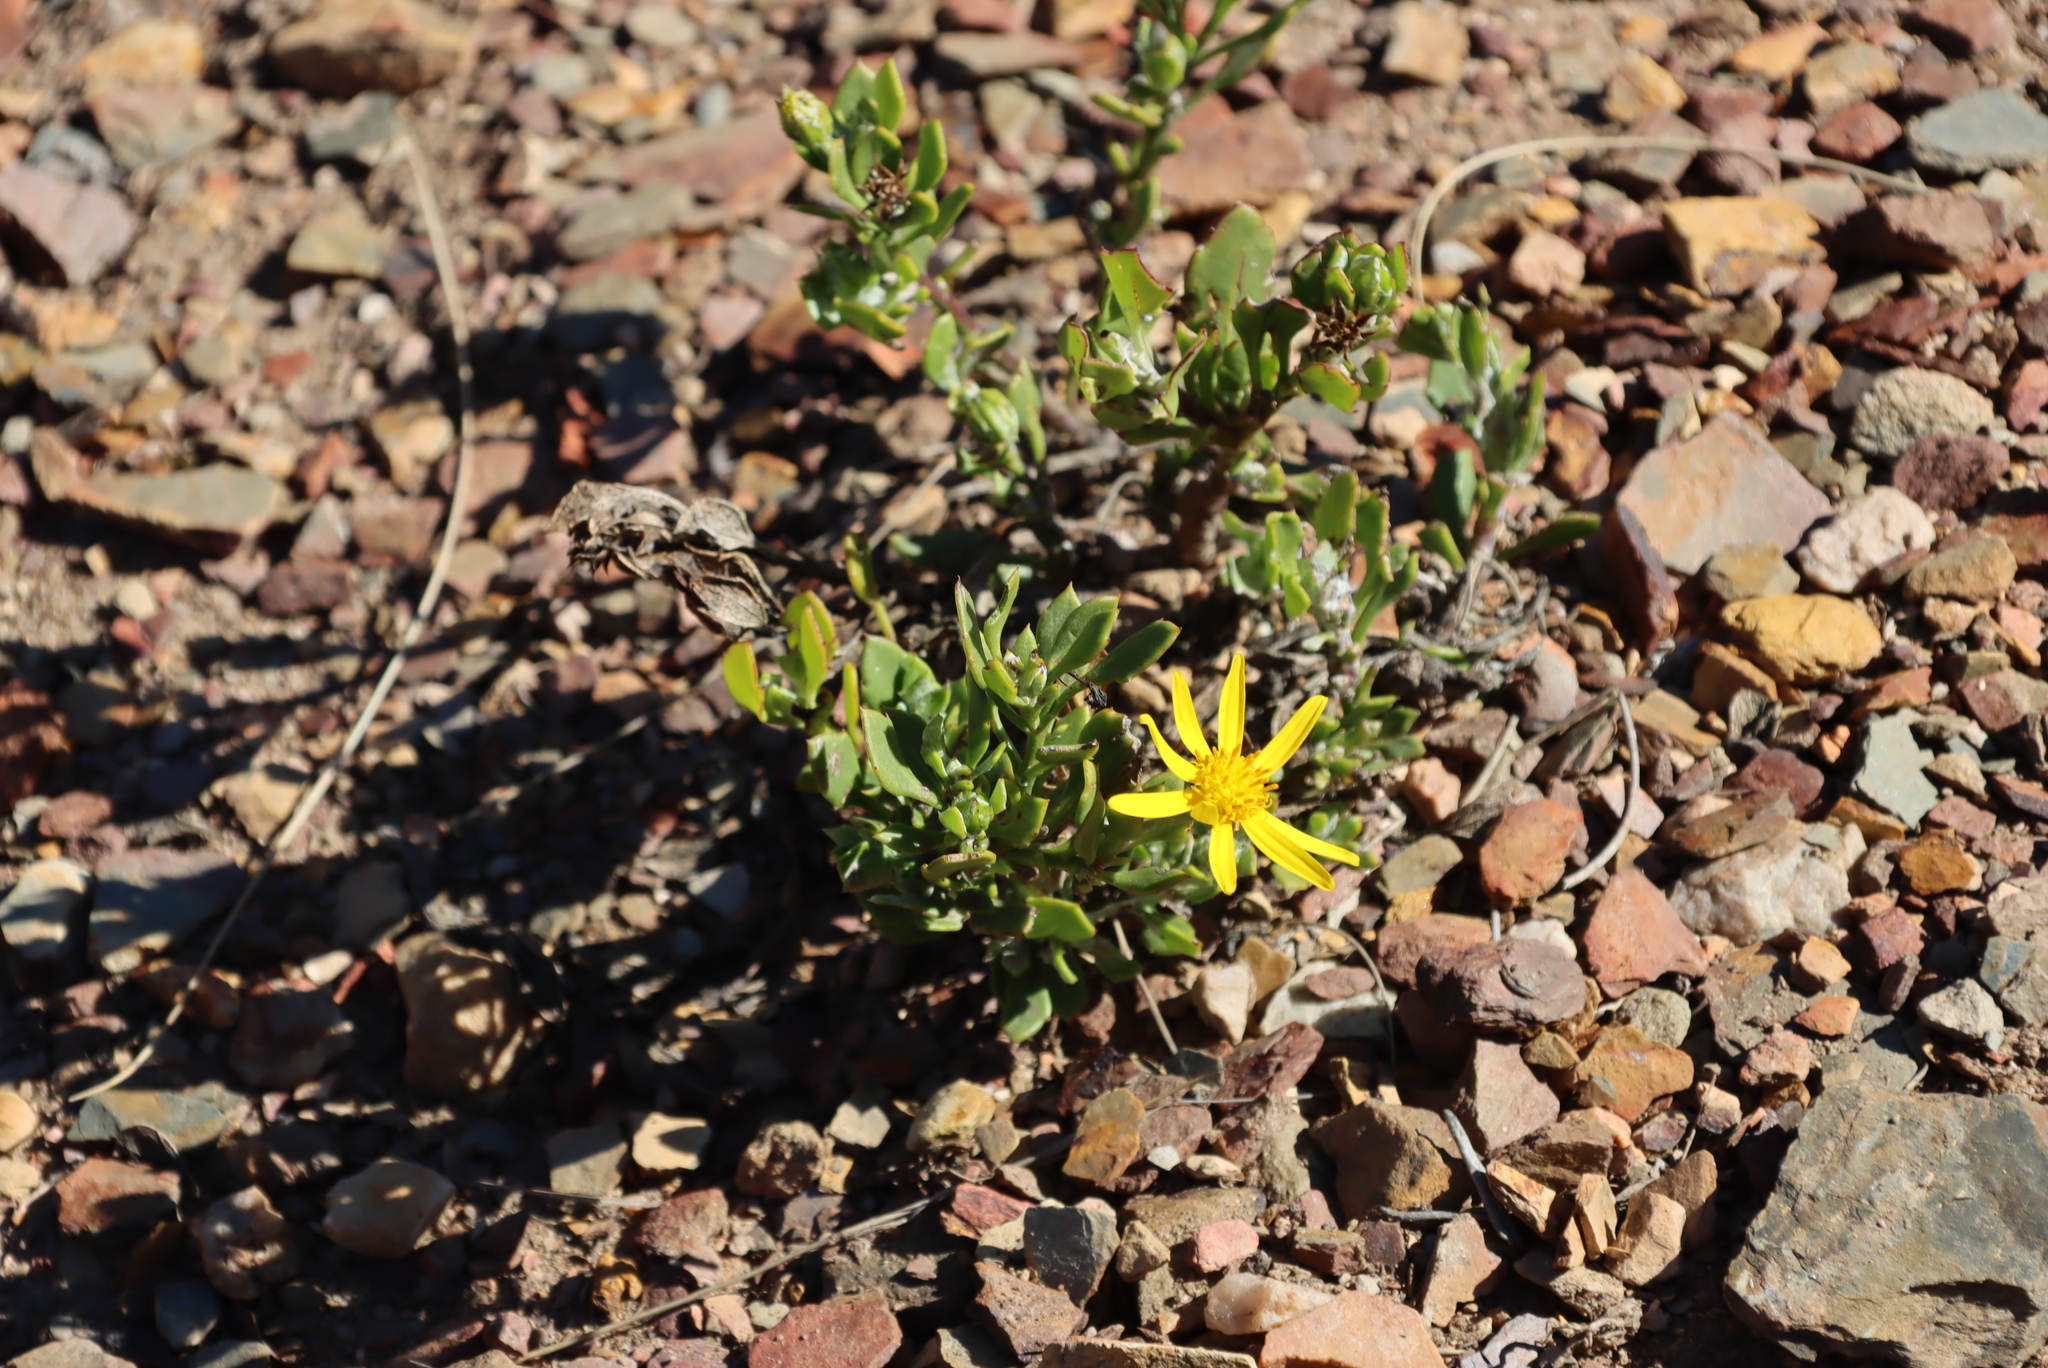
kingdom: Plantae
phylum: Tracheophyta
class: Magnoliopsida
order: Asterales
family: Asteraceae
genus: Osteospermum
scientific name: Osteospermum moniliferum
